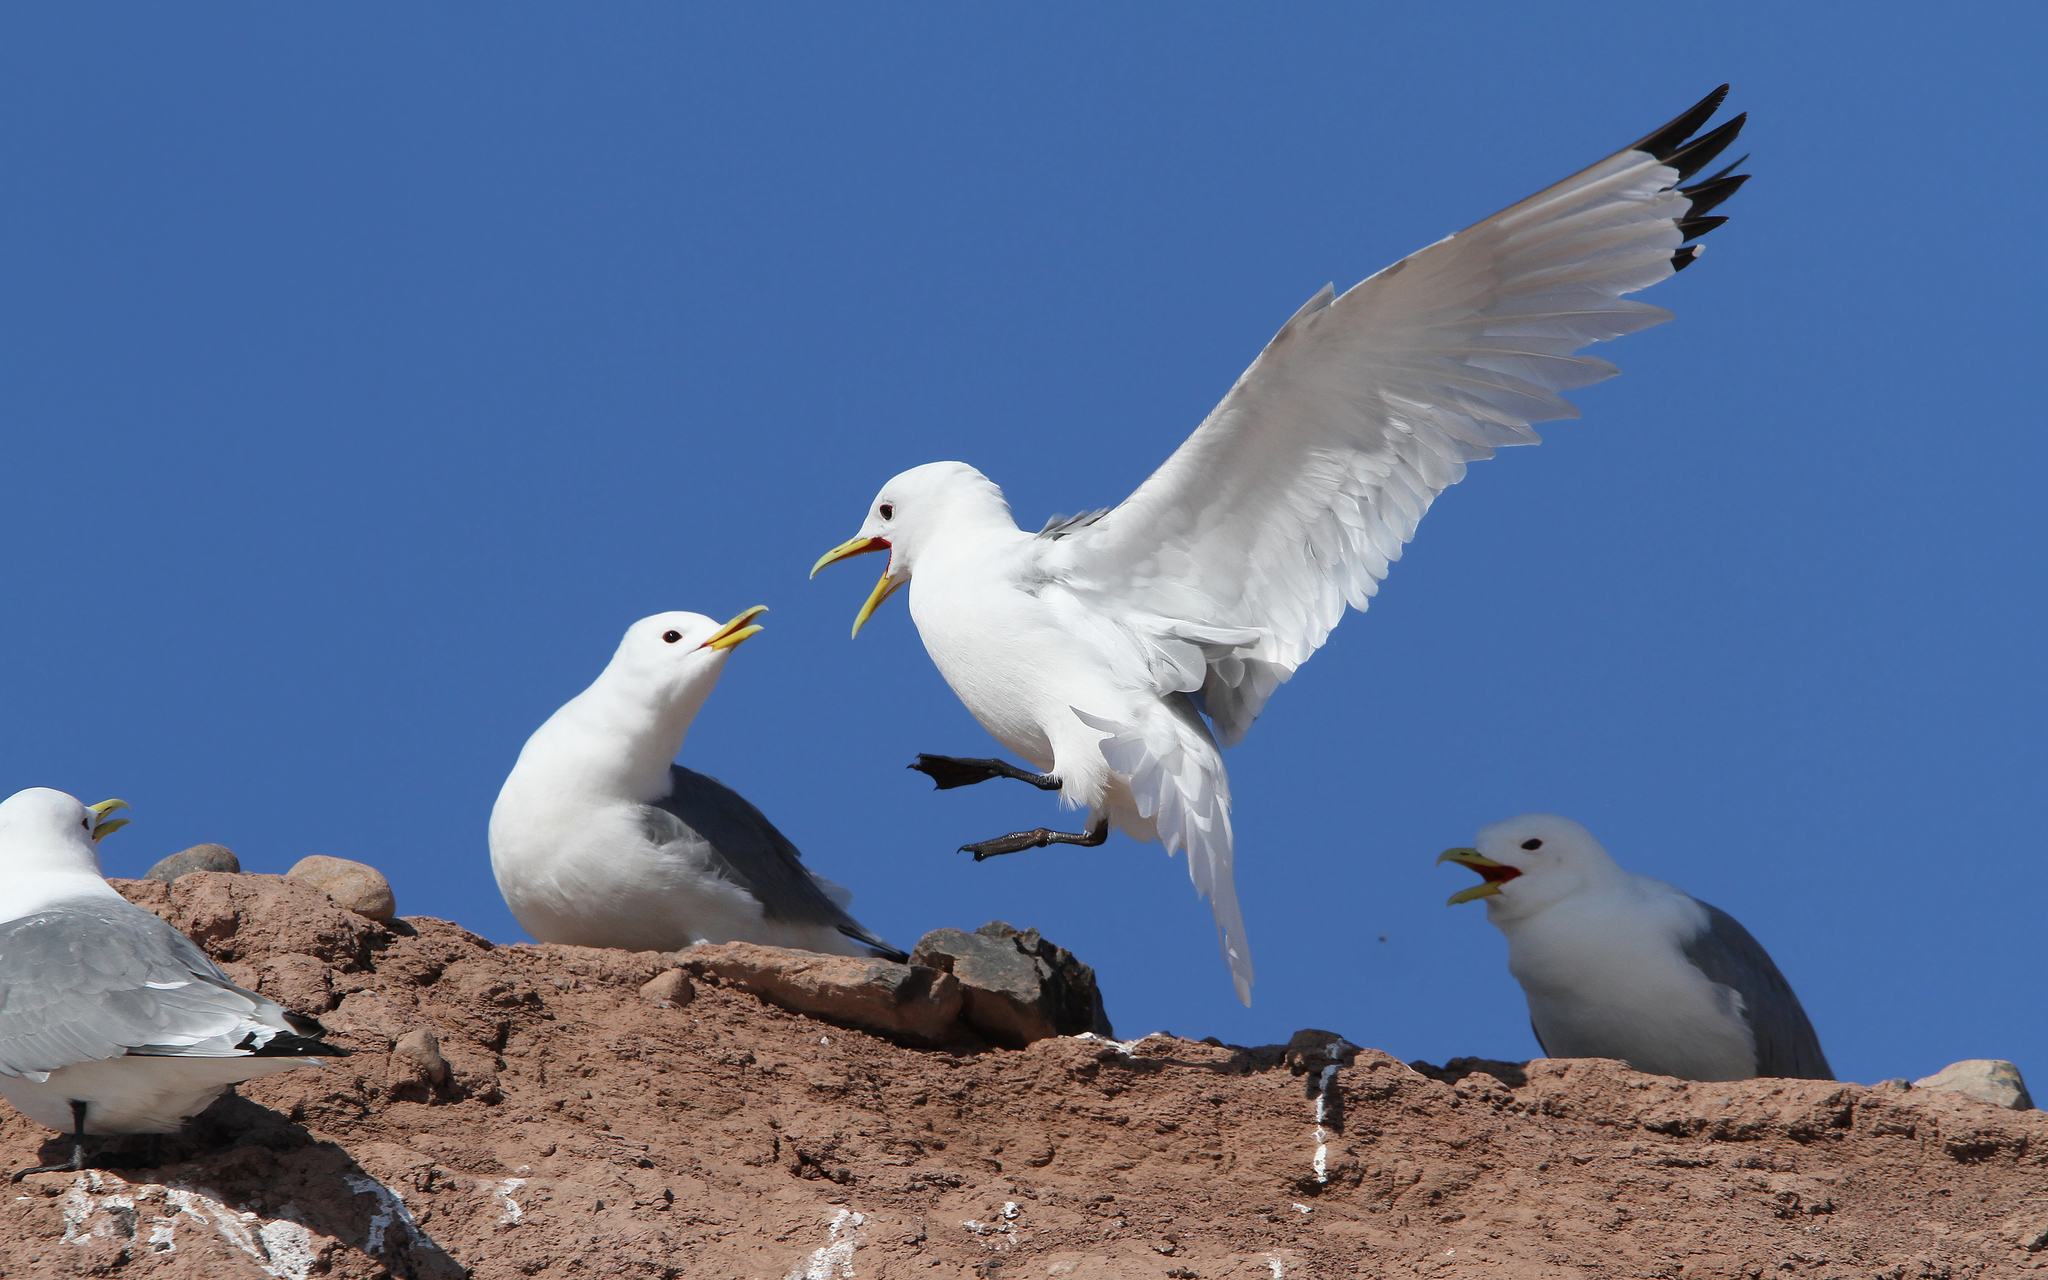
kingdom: Animalia
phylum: Chordata
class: Aves
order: Charadriiformes
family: Laridae
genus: Rissa
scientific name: Rissa tridactyla
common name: Black-legged kittiwake
